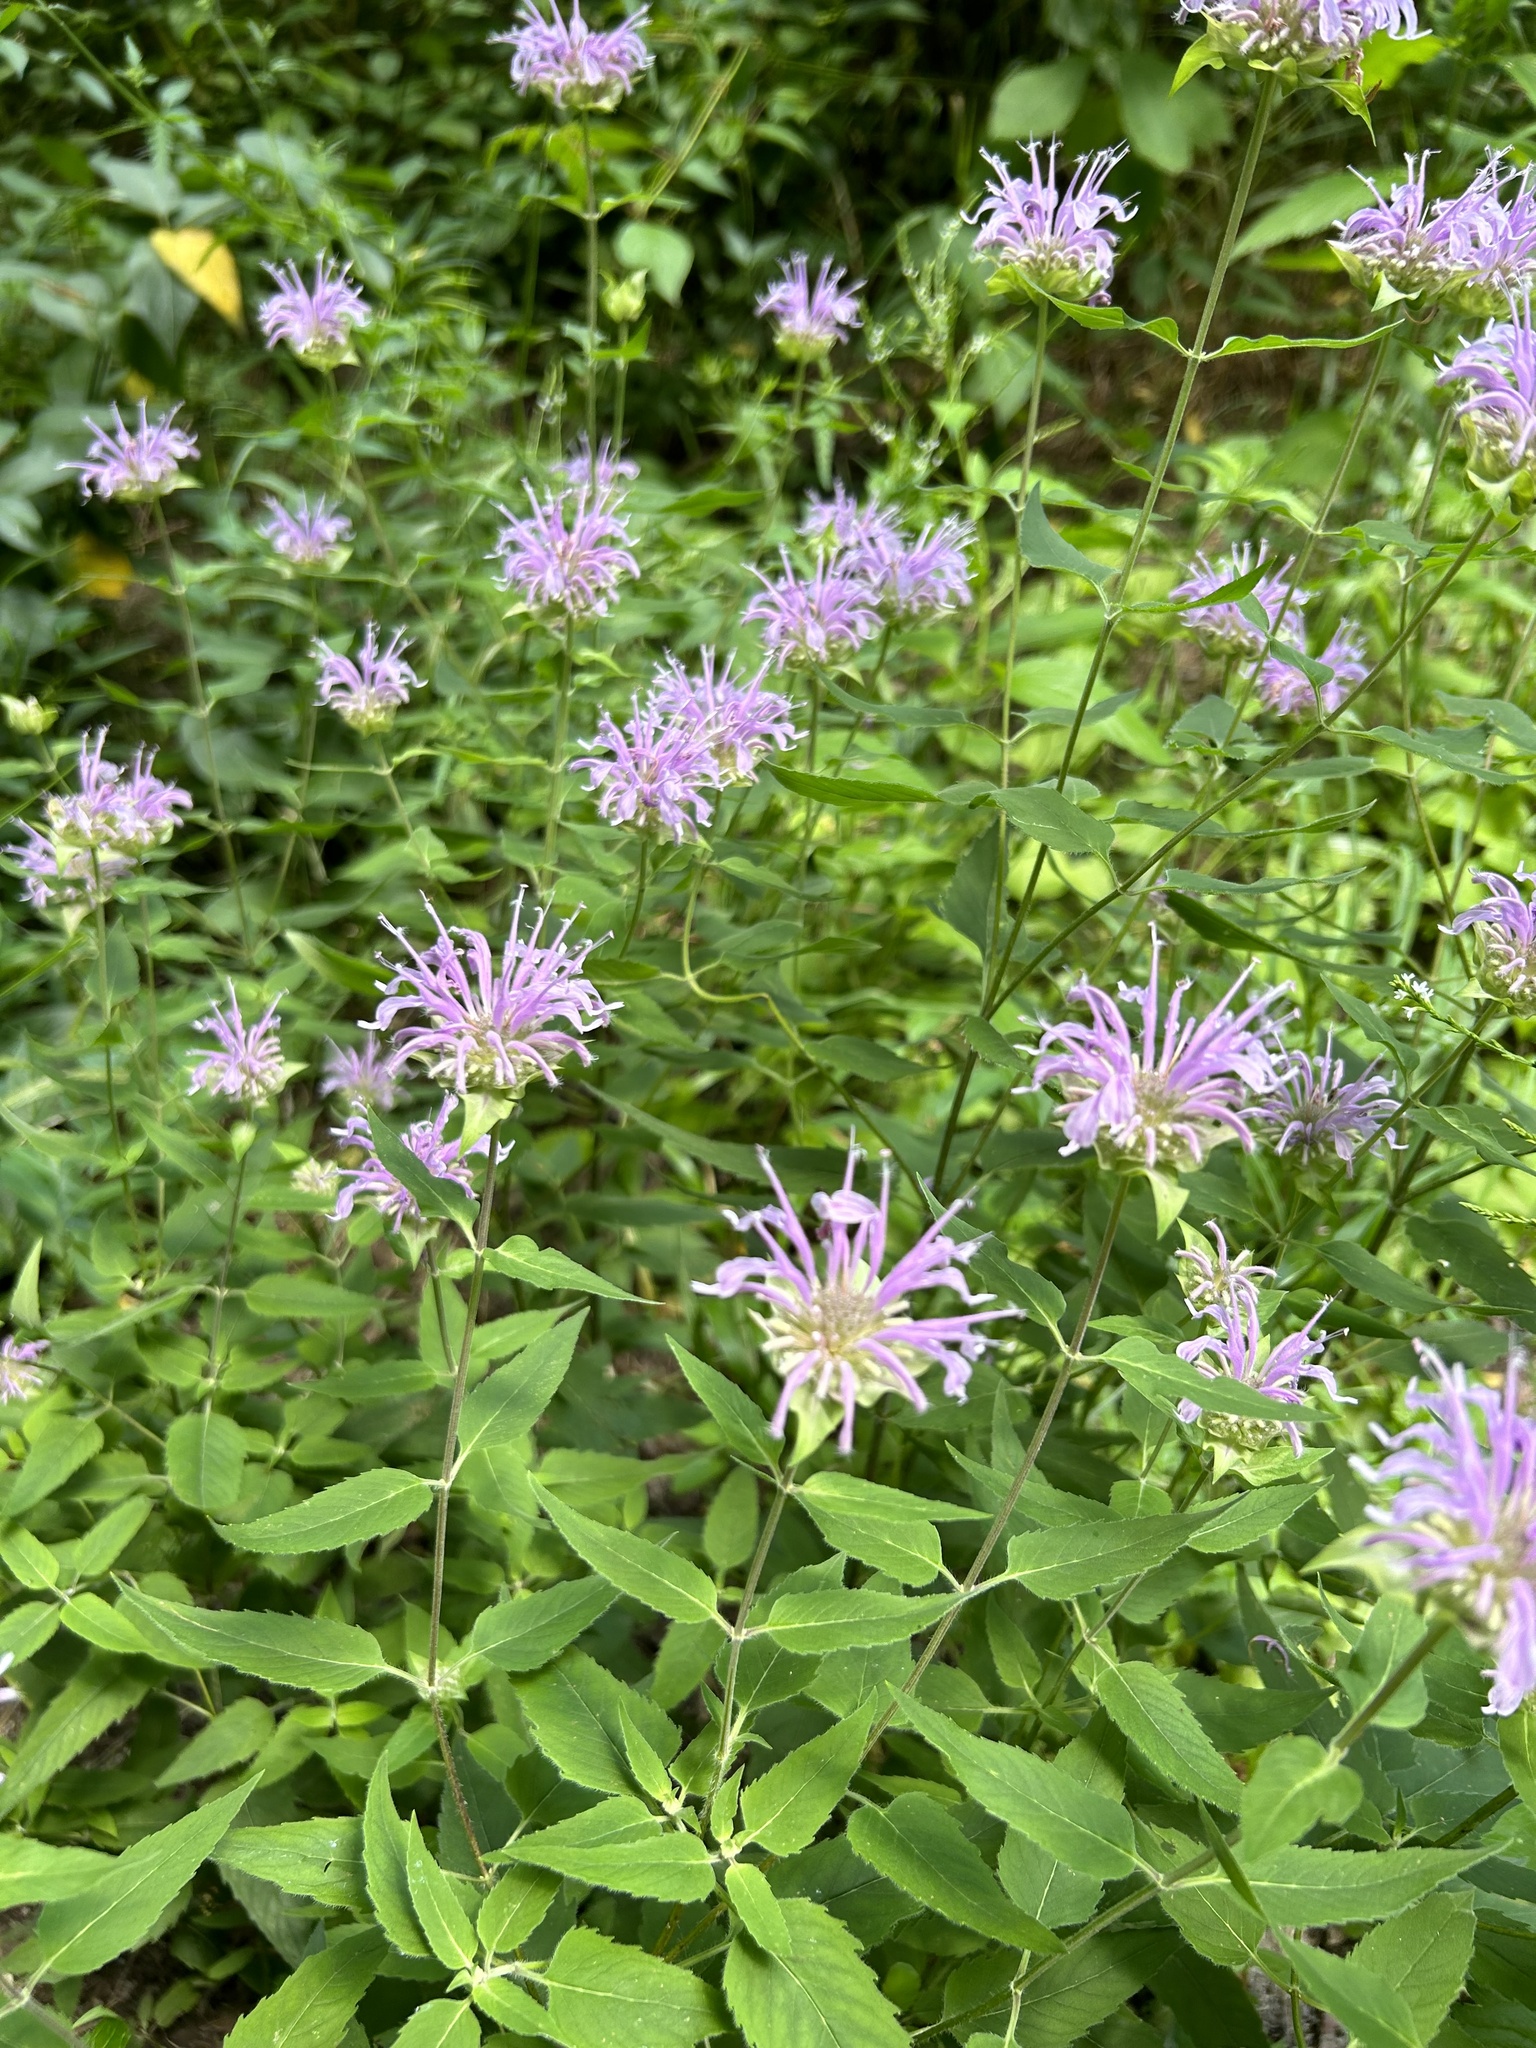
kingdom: Plantae
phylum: Tracheophyta
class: Magnoliopsida
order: Lamiales
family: Lamiaceae
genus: Monarda
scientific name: Monarda fistulosa
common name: Purple beebalm
